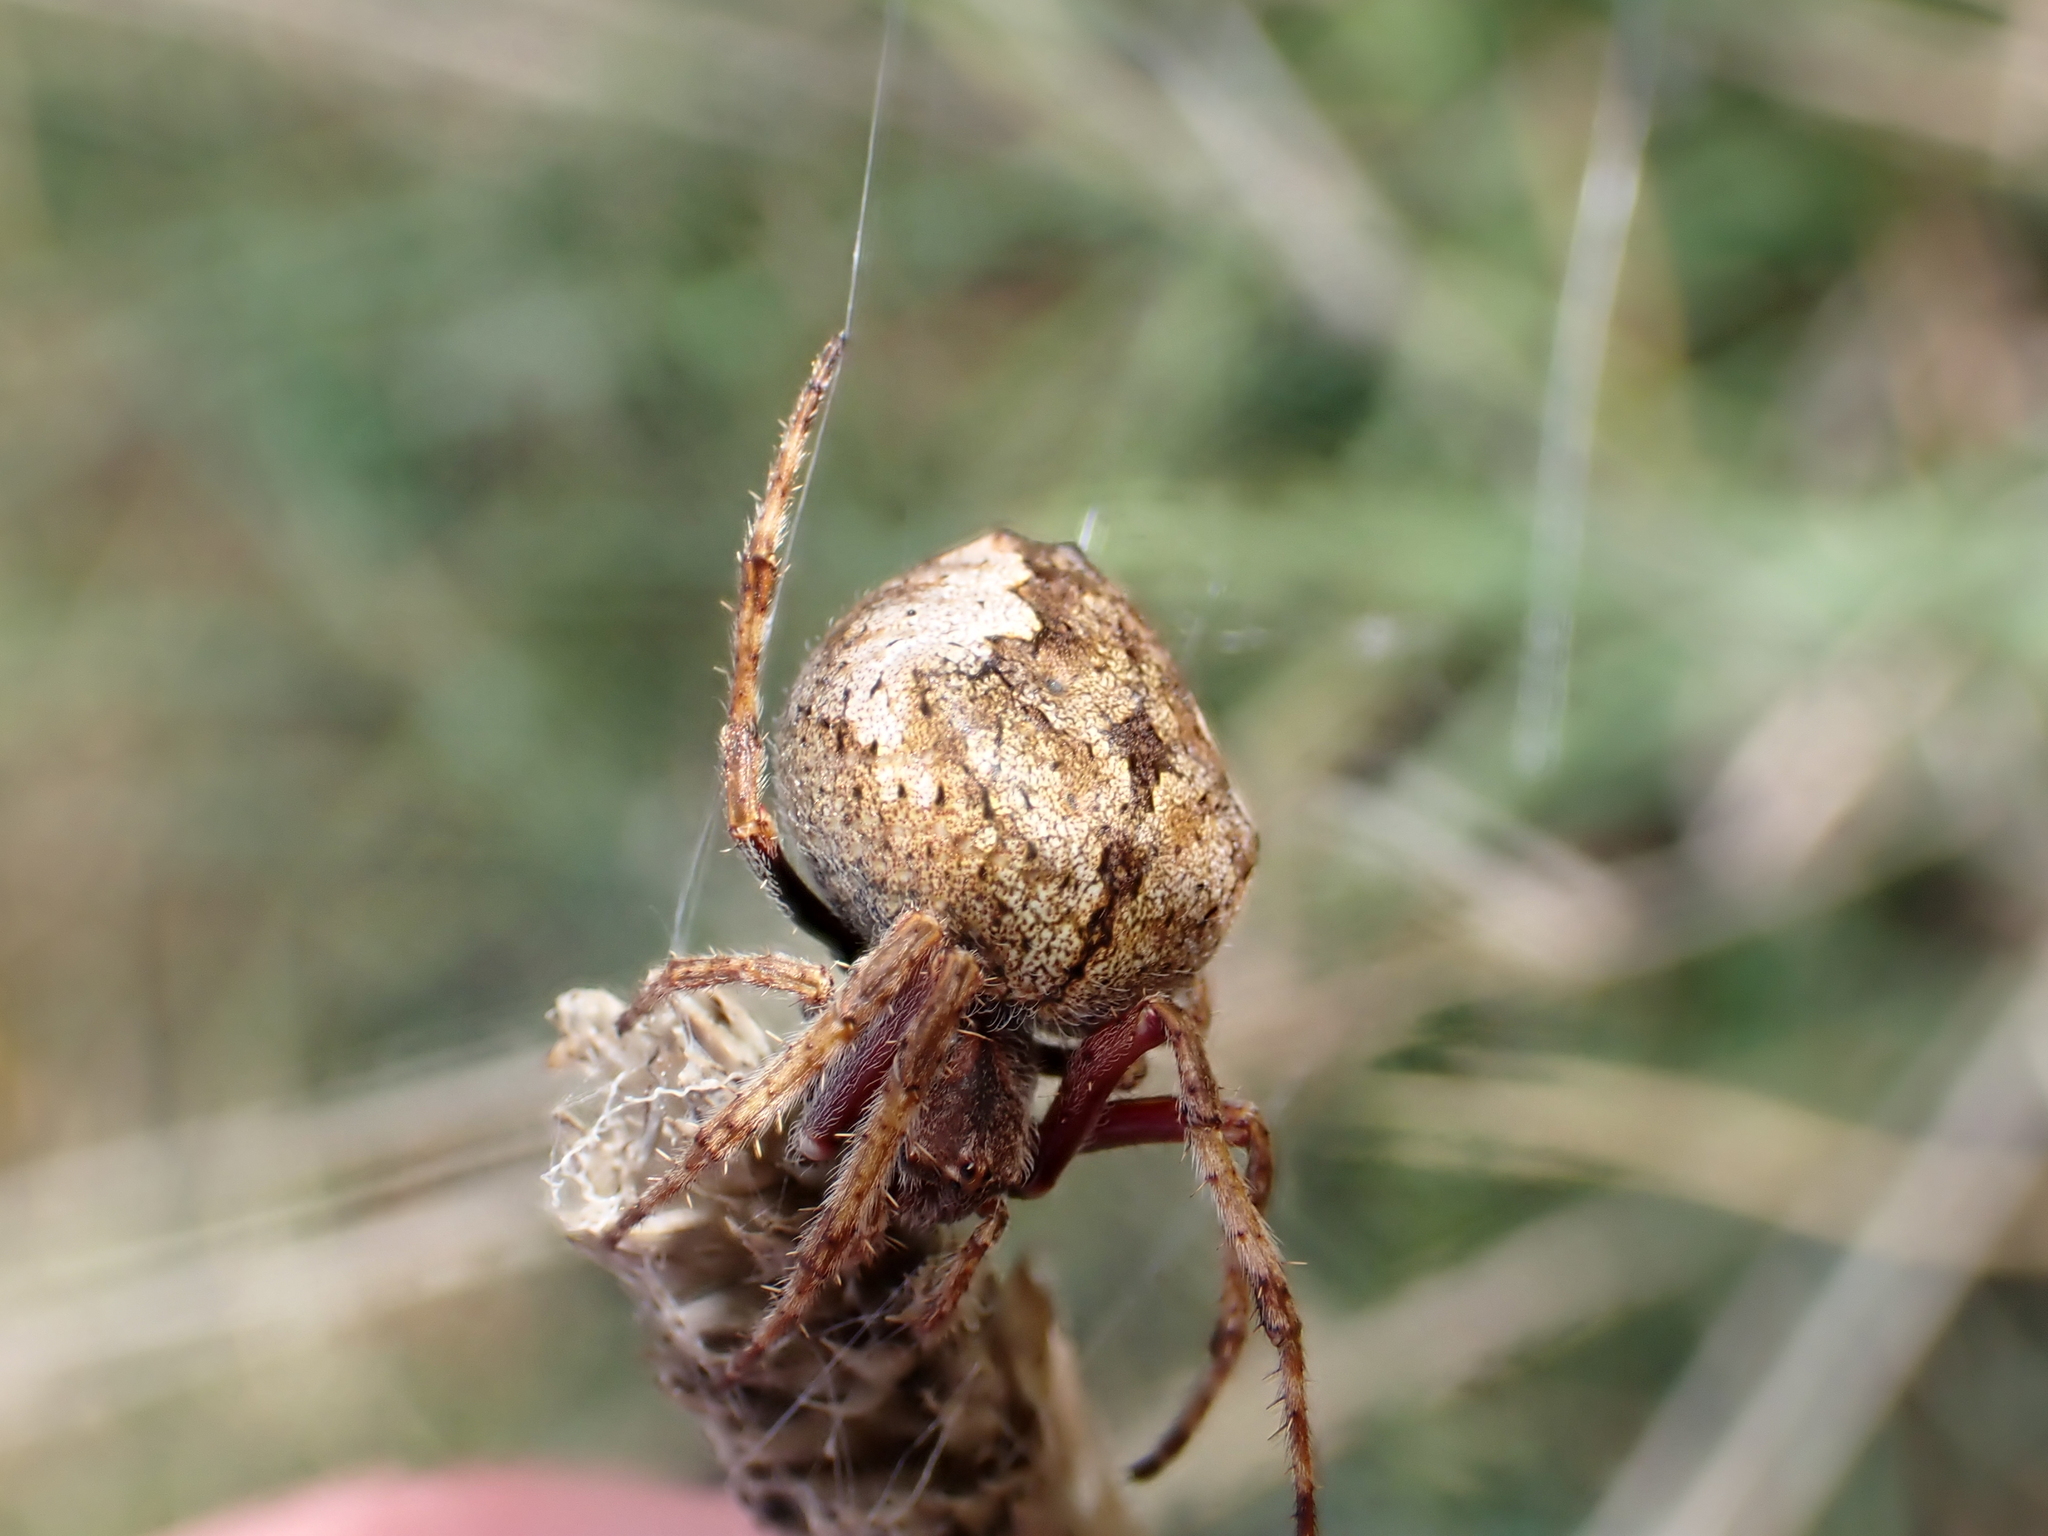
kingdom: Animalia
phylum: Arthropoda
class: Arachnida
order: Araneae
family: Araneidae
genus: Eriophora
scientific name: Eriophora pustulosa
